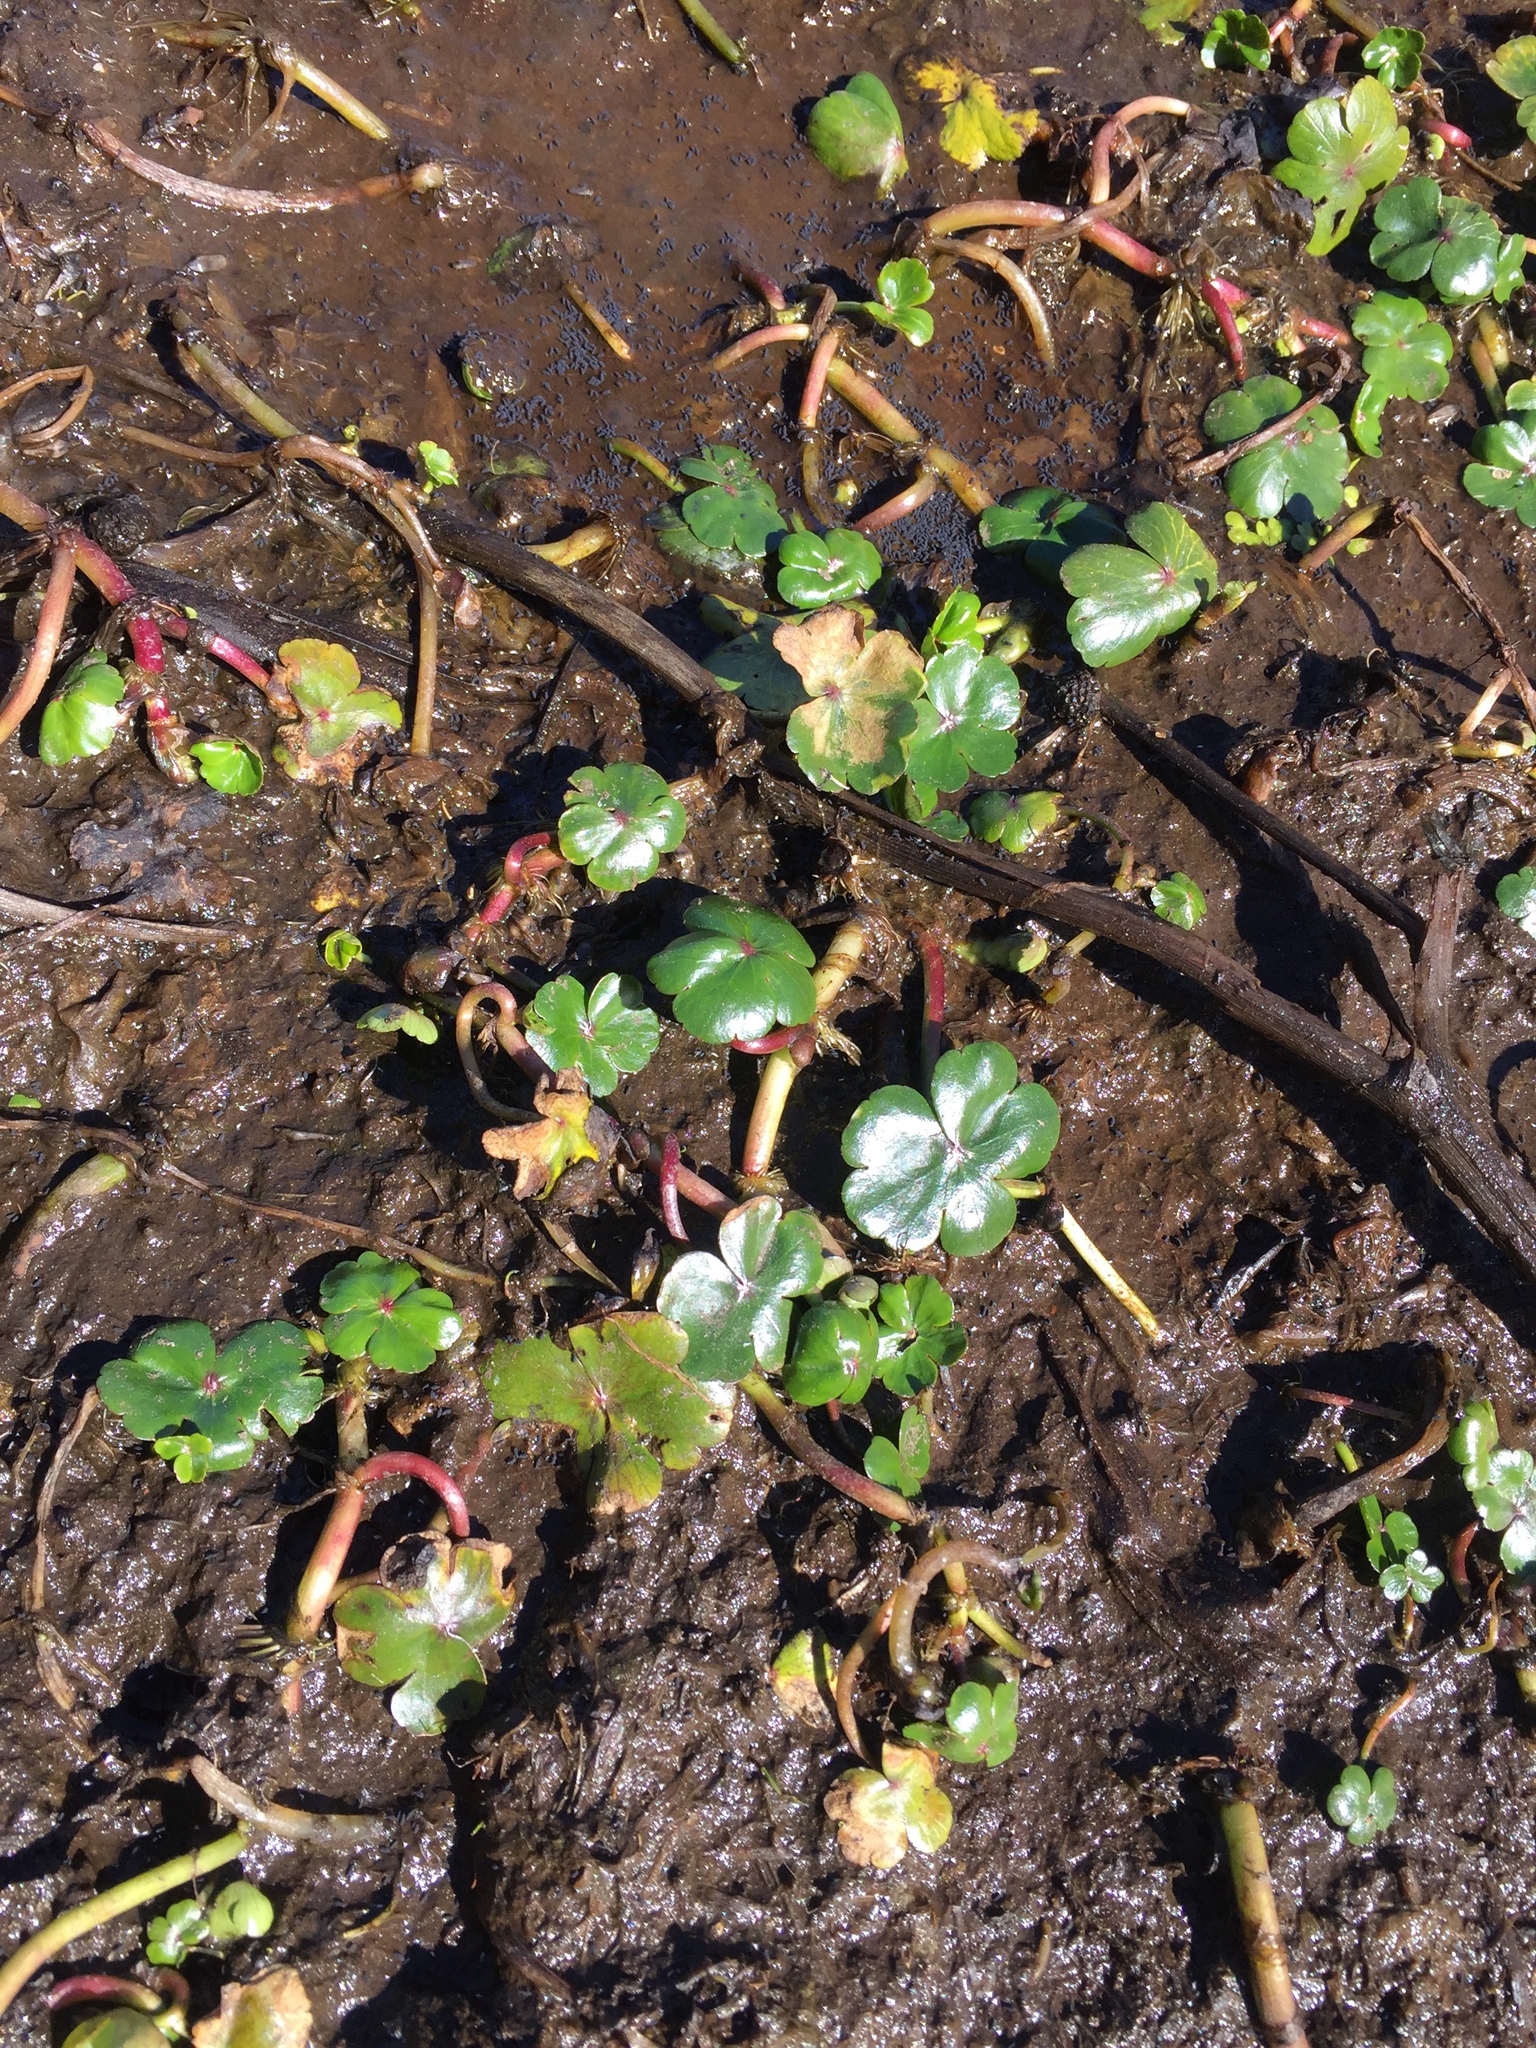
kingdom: Plantae
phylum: Tracheophyta
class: Magnoliopsida
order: Apiales
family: Araliaceae
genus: Hydrocotyle
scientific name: Hydrocotyle ranunculoides
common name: Floating pennywort
